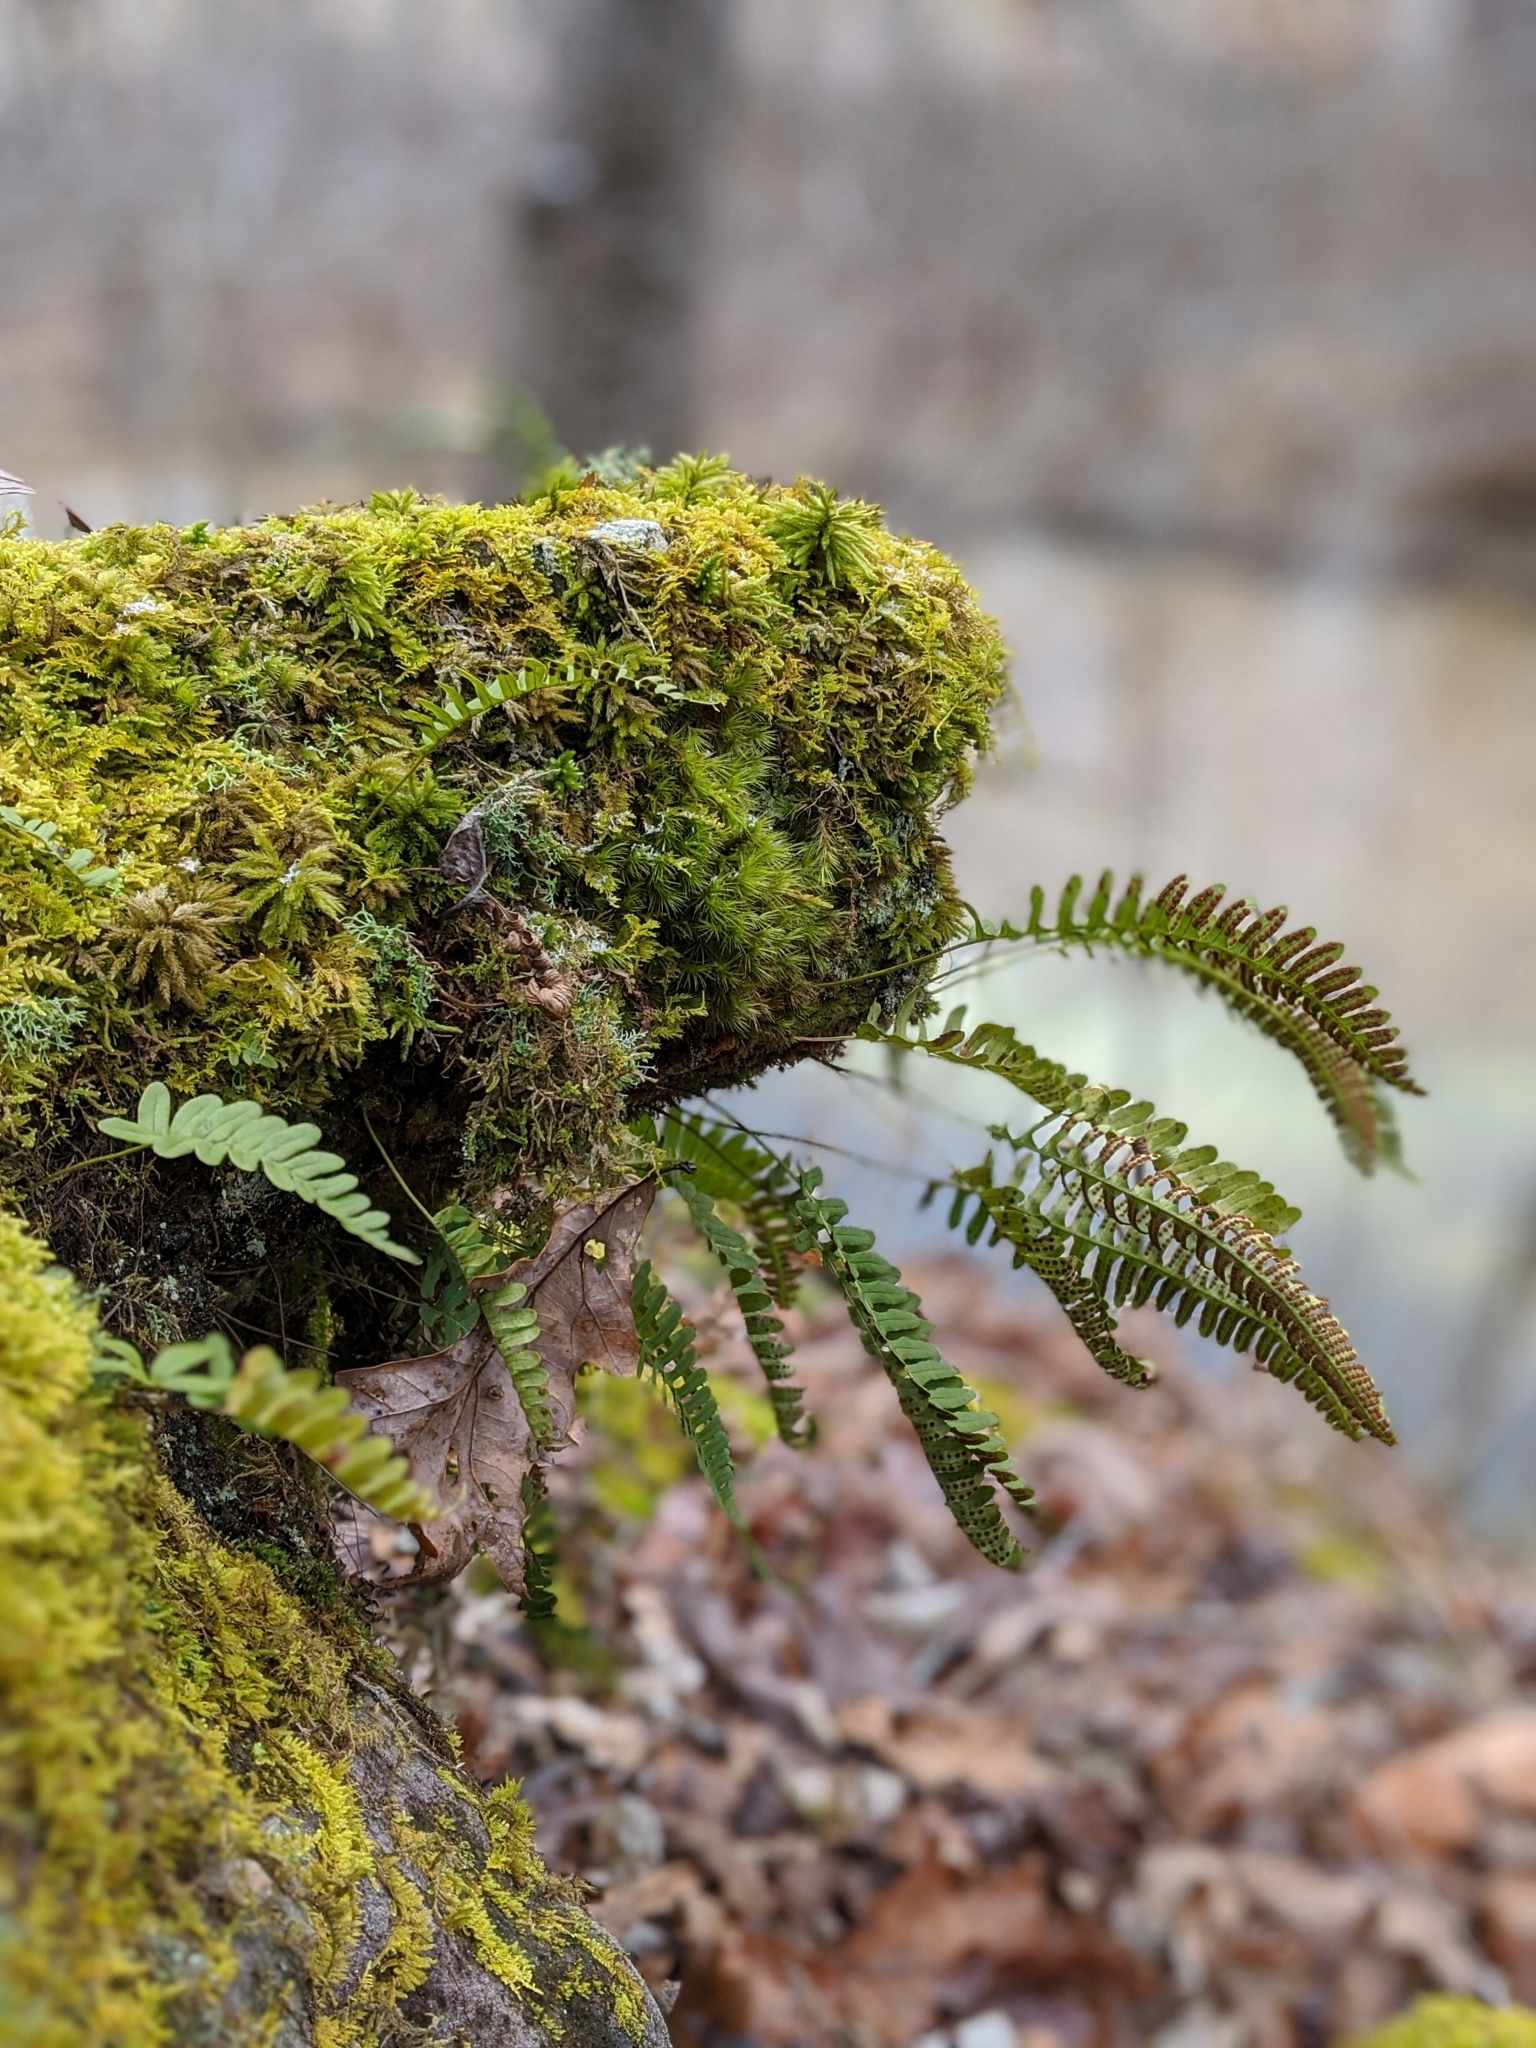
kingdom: Plantae
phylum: Tracheophyta
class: Polypodiopsida
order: Polypodiales
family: Polypodiaceae
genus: Polypodium
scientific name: Polypodium virginianum
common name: American wall fern
